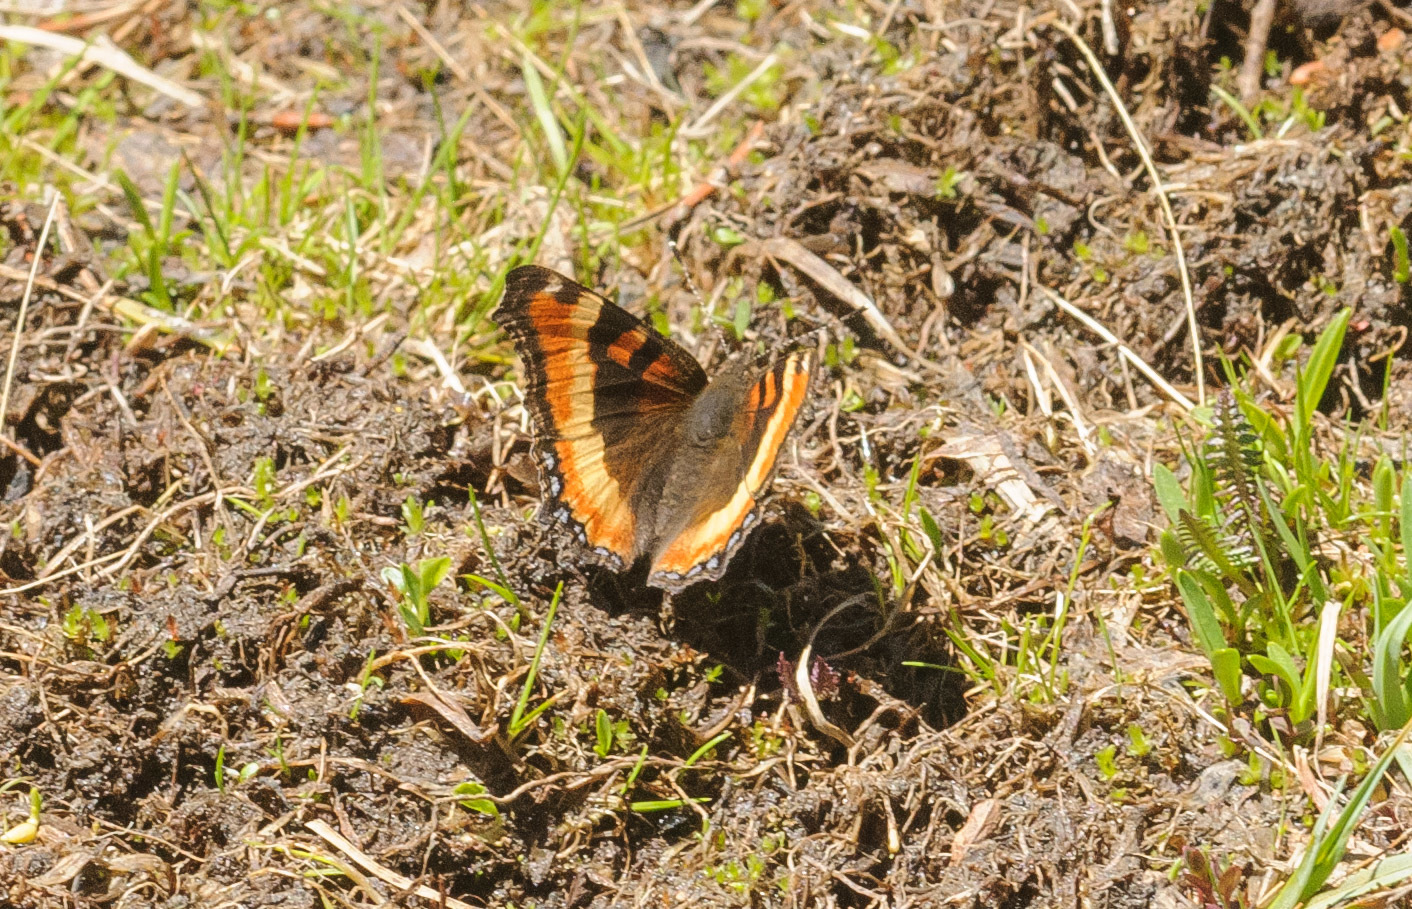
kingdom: Animalia
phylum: Arthropoda
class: Insecta
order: Lepidoptera
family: Nymphalidae
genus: Aglais
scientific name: Aglais milberti
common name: Milbert's tortoiseshell
